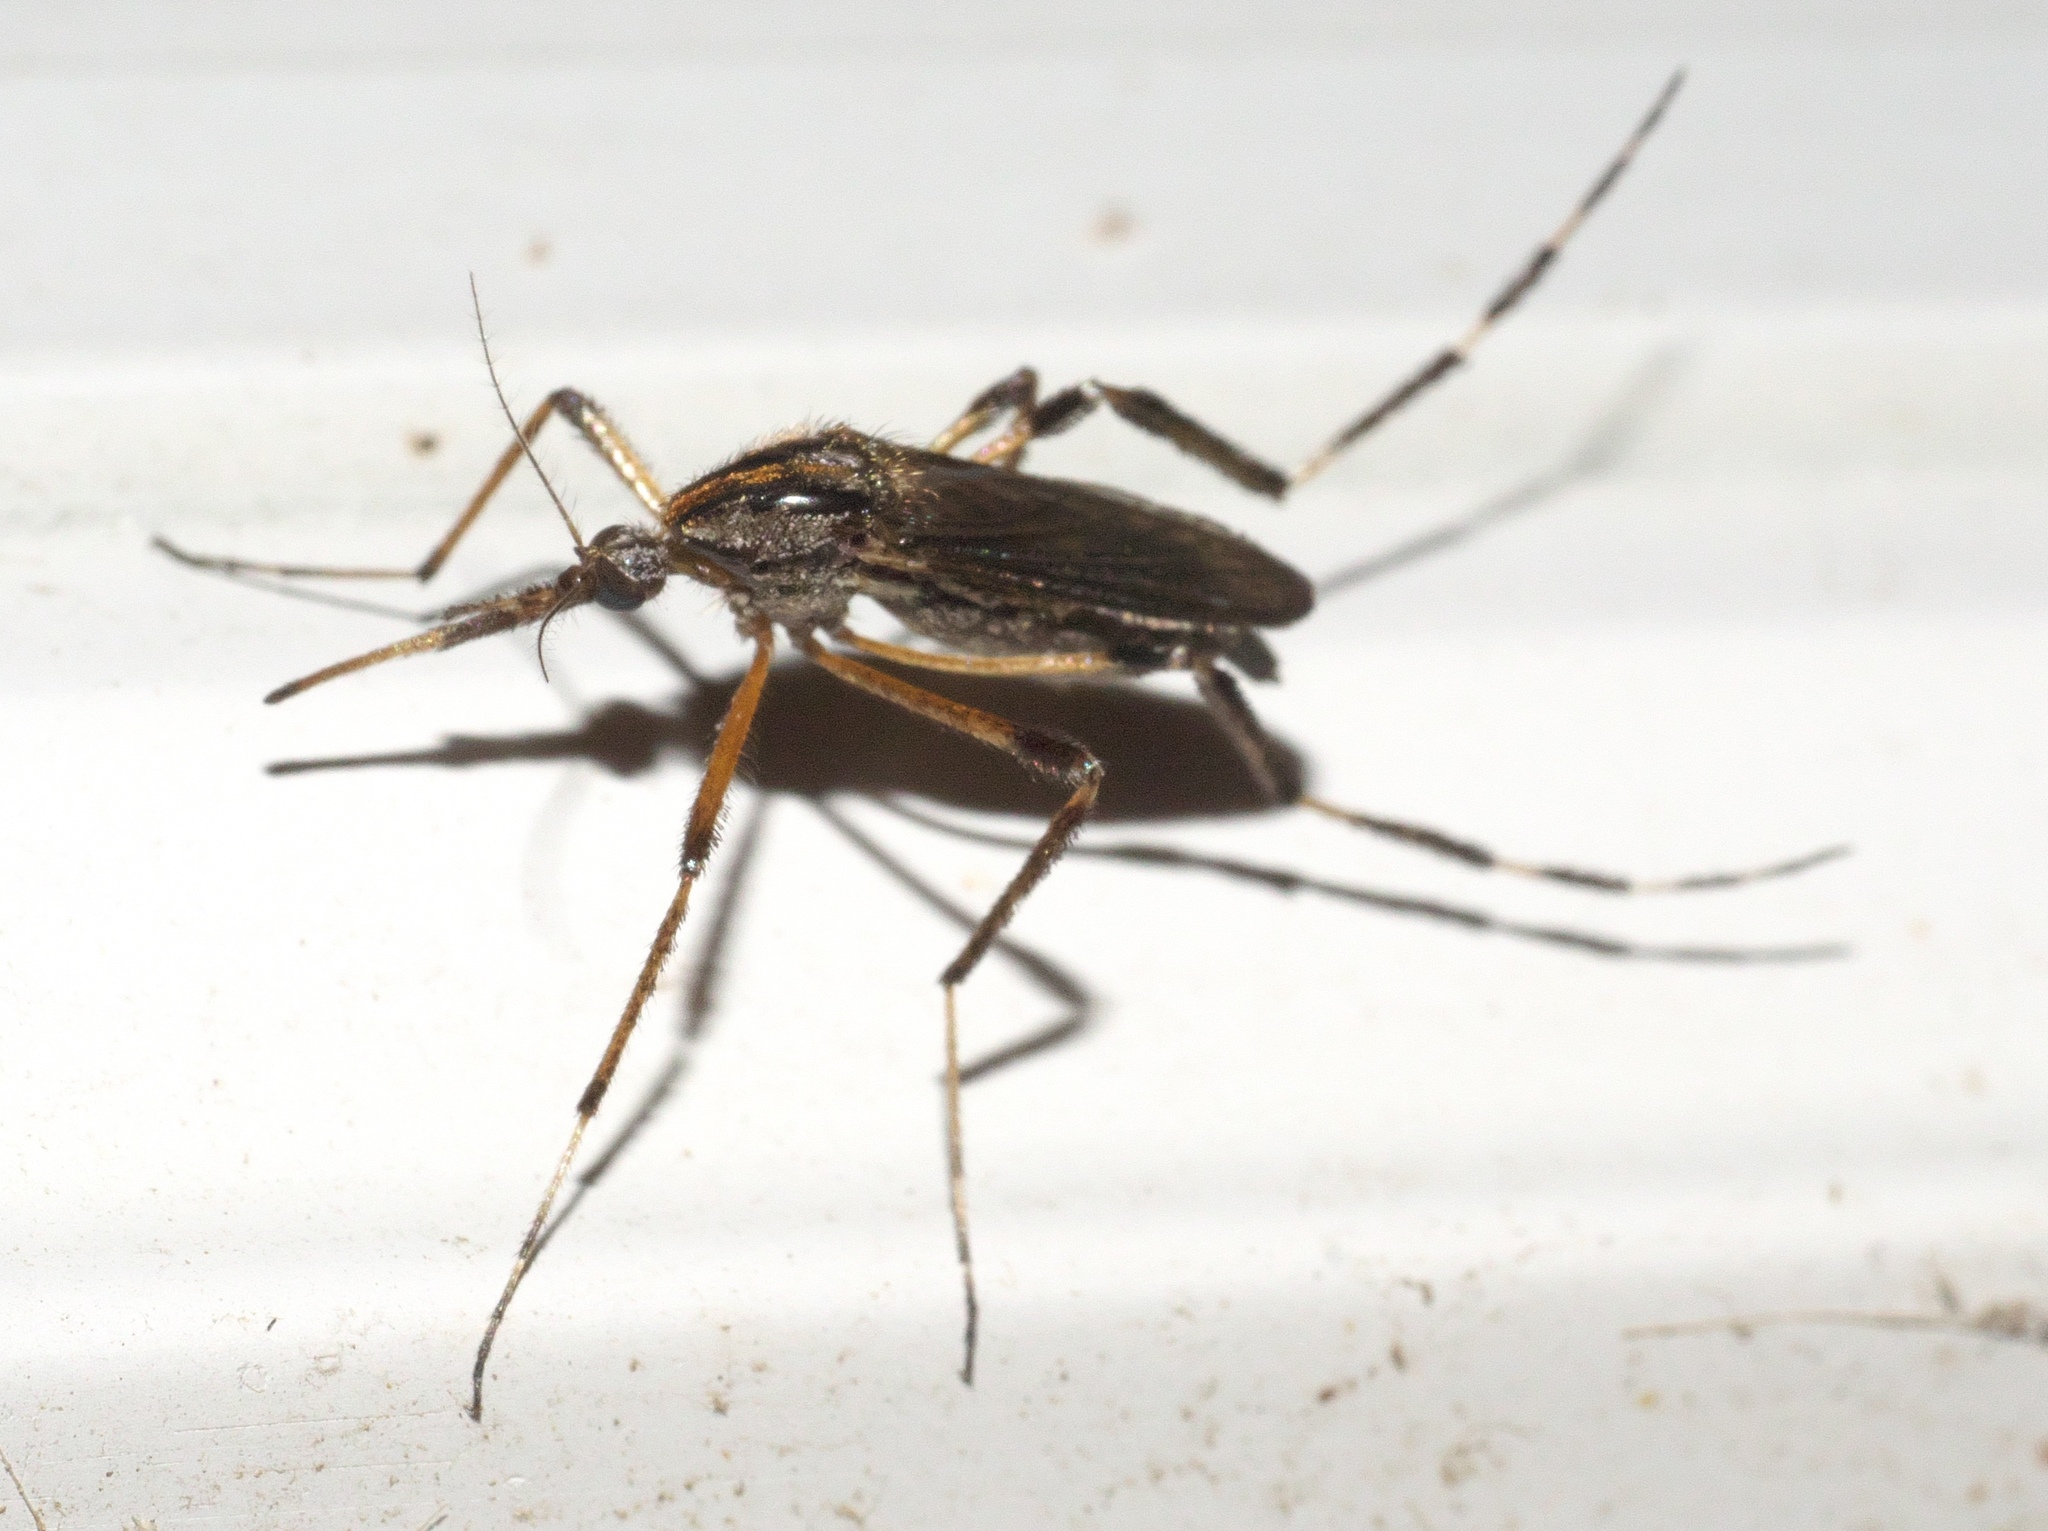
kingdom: Animalia
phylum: Arthropoda
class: Insecta
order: Diptera
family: Culicidae
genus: Psorophora
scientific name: Psorophora ciliata
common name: Gallinipper
